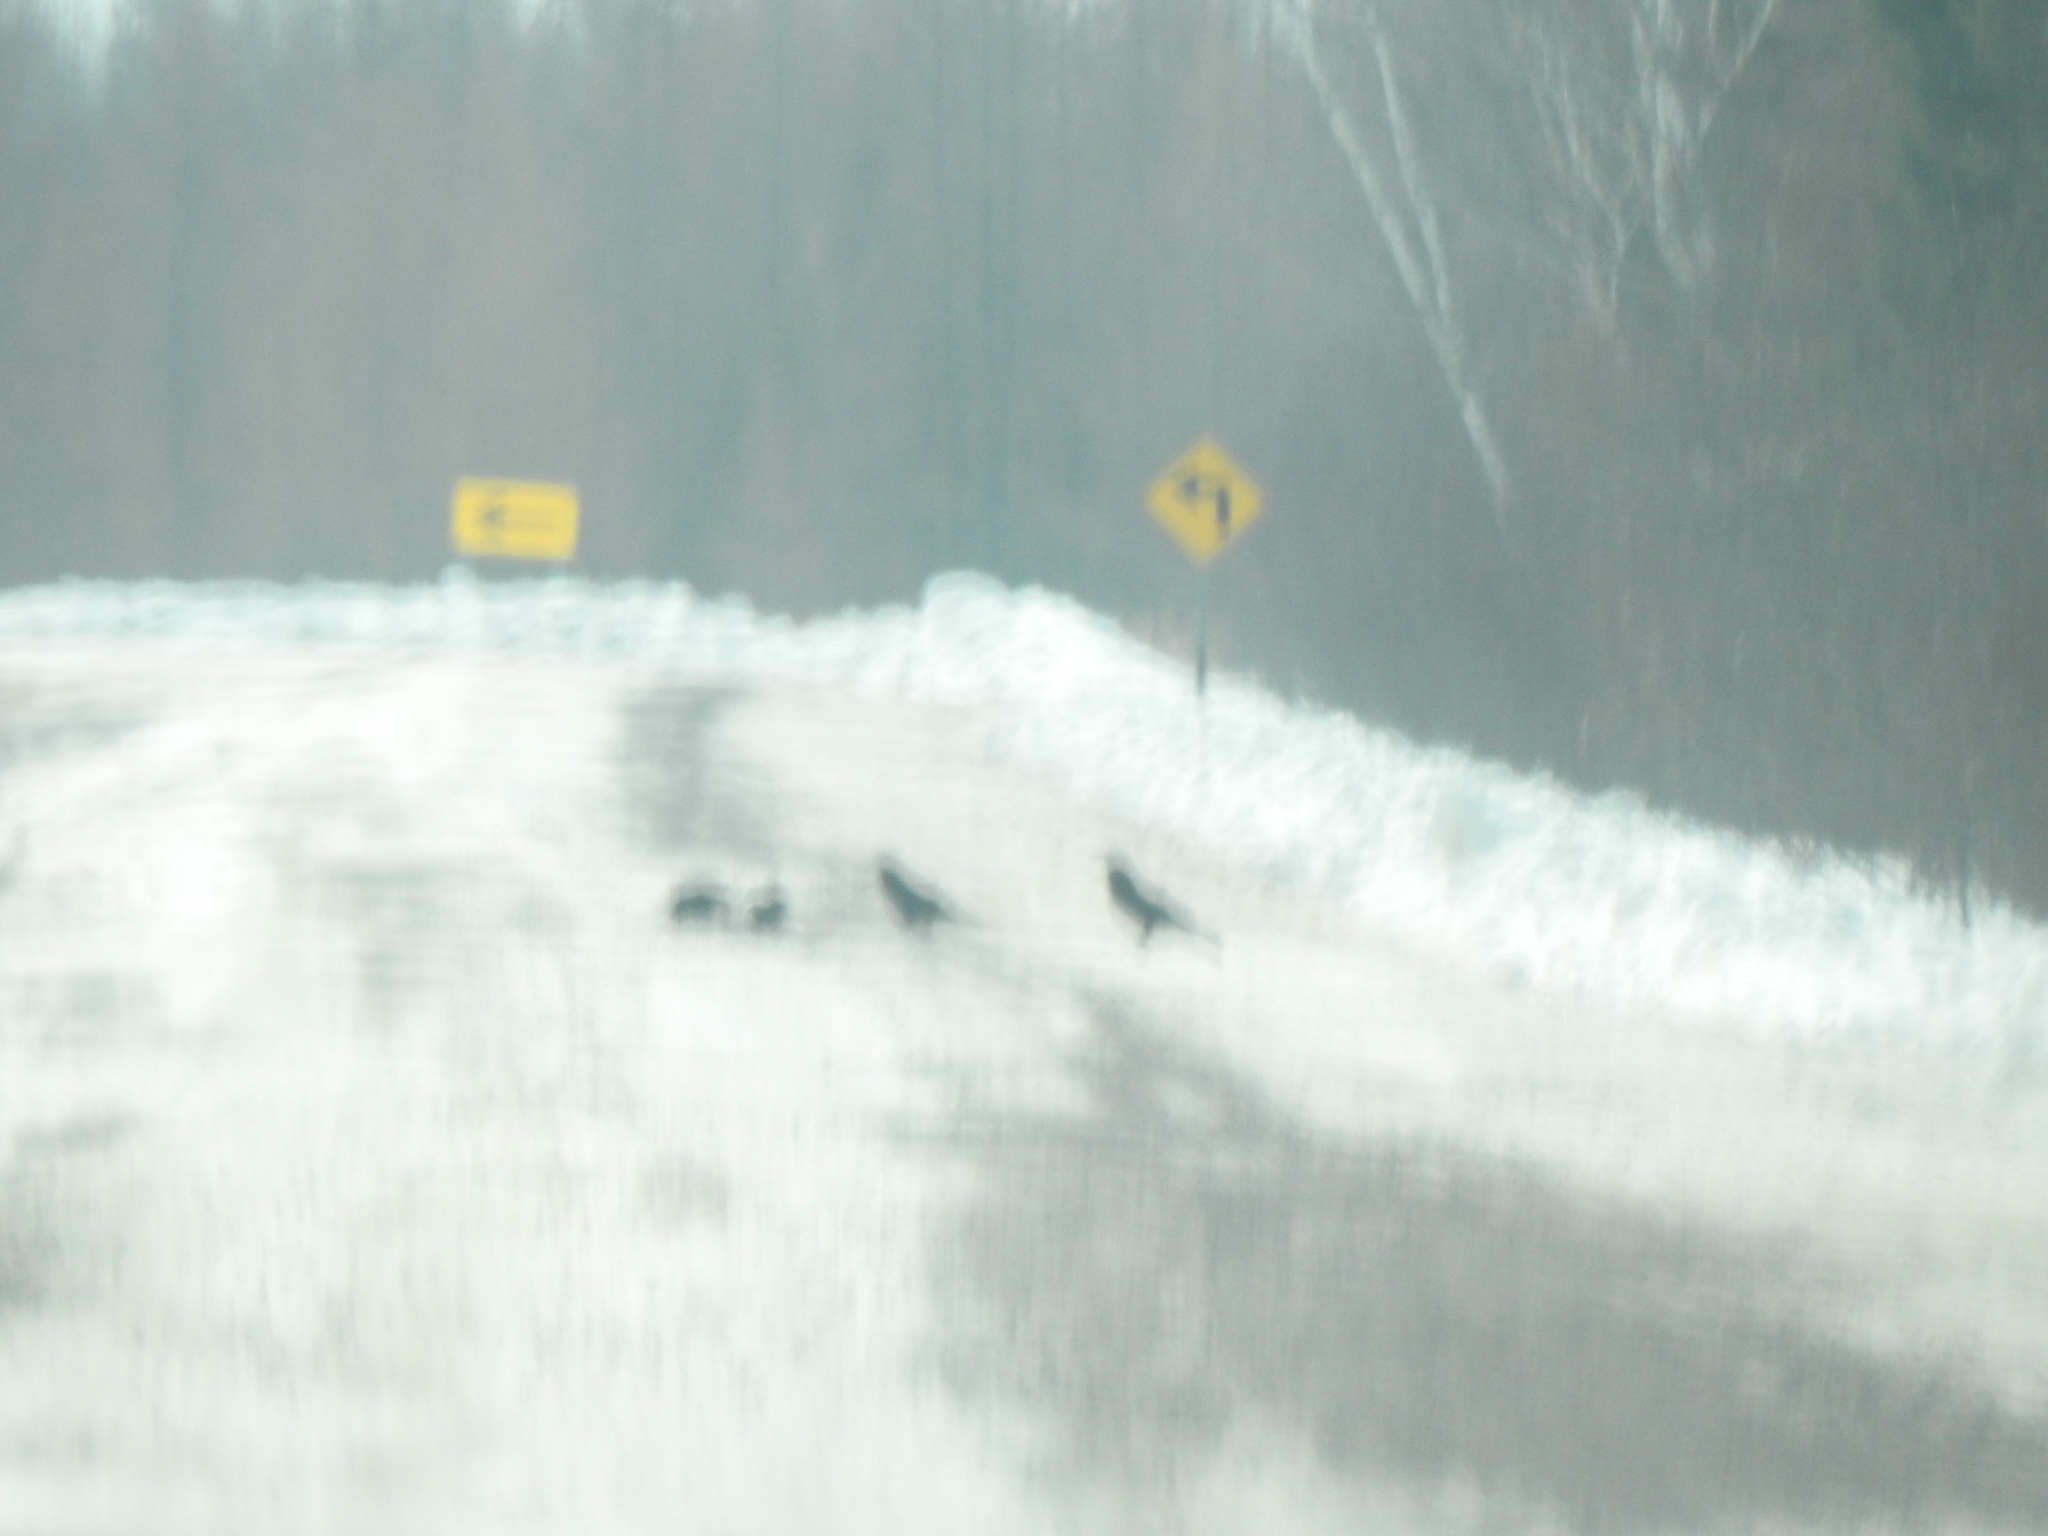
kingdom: Animalia
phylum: Chordata
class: Aves
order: Passeriformes
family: Corvidae
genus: Pica
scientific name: Pica hudsonia
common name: Black-billed magpie
